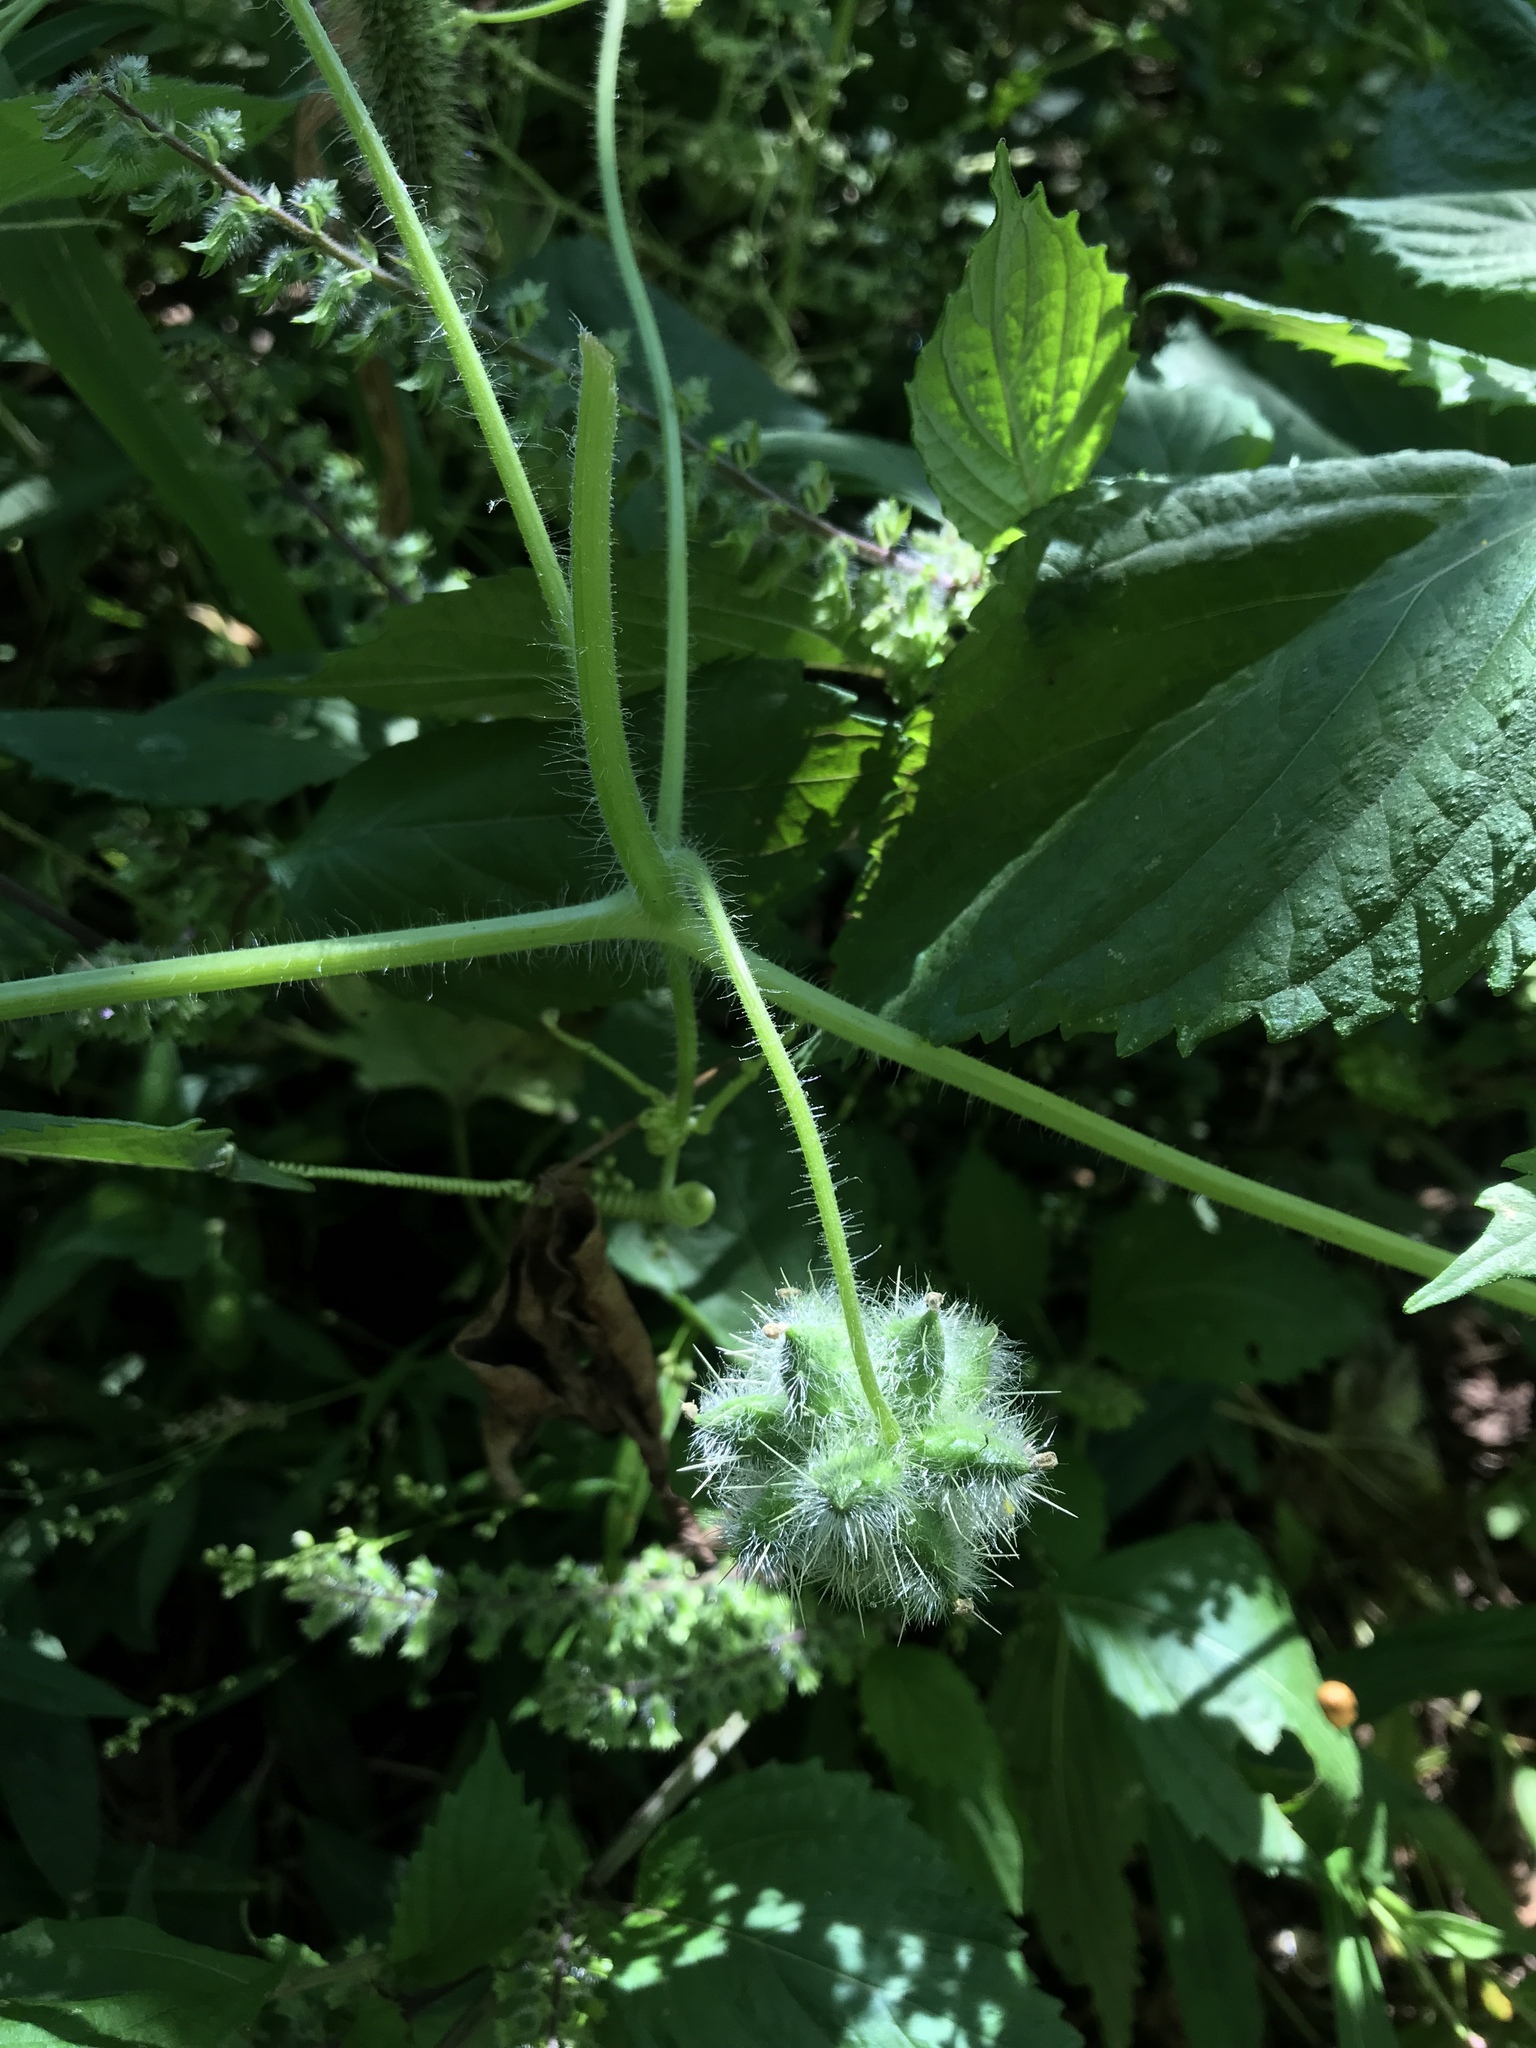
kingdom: Plantae
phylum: Tracheophyta
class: Magnoliopsida
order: Cucurbitales
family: Cucurbitaceae
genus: Sicyos
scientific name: Sicyos angulatus
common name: Angled burr cucumber
